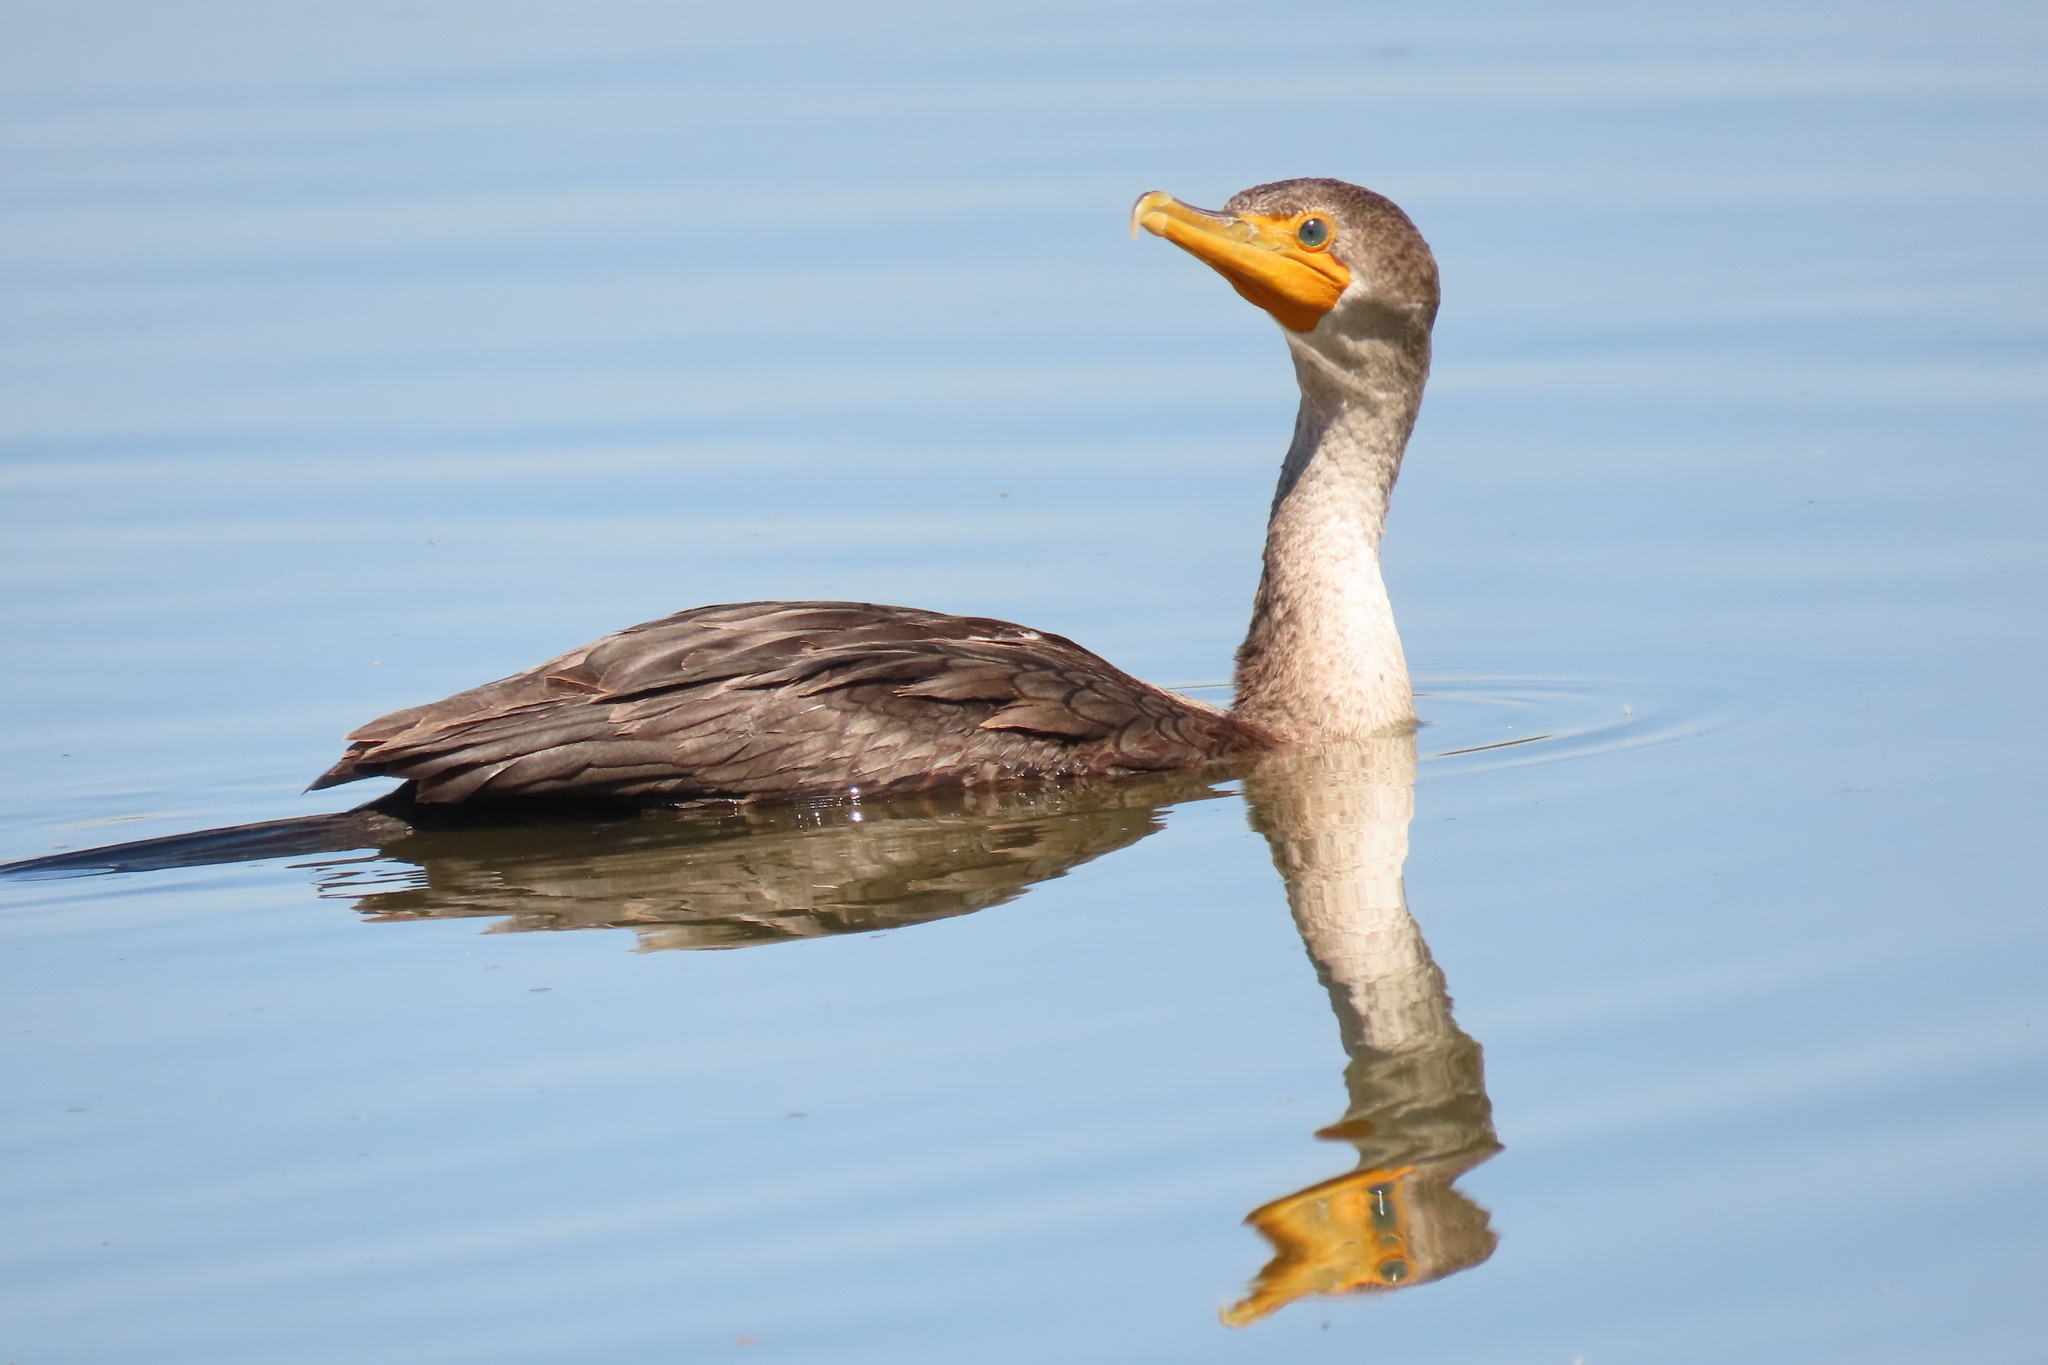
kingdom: Animalia
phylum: Chordata
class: Aves
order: Suliformes
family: Phalacrocoracidae
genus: Phalacrocorax
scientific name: Phalacrocorax auritus
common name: Double-crested cormorant
